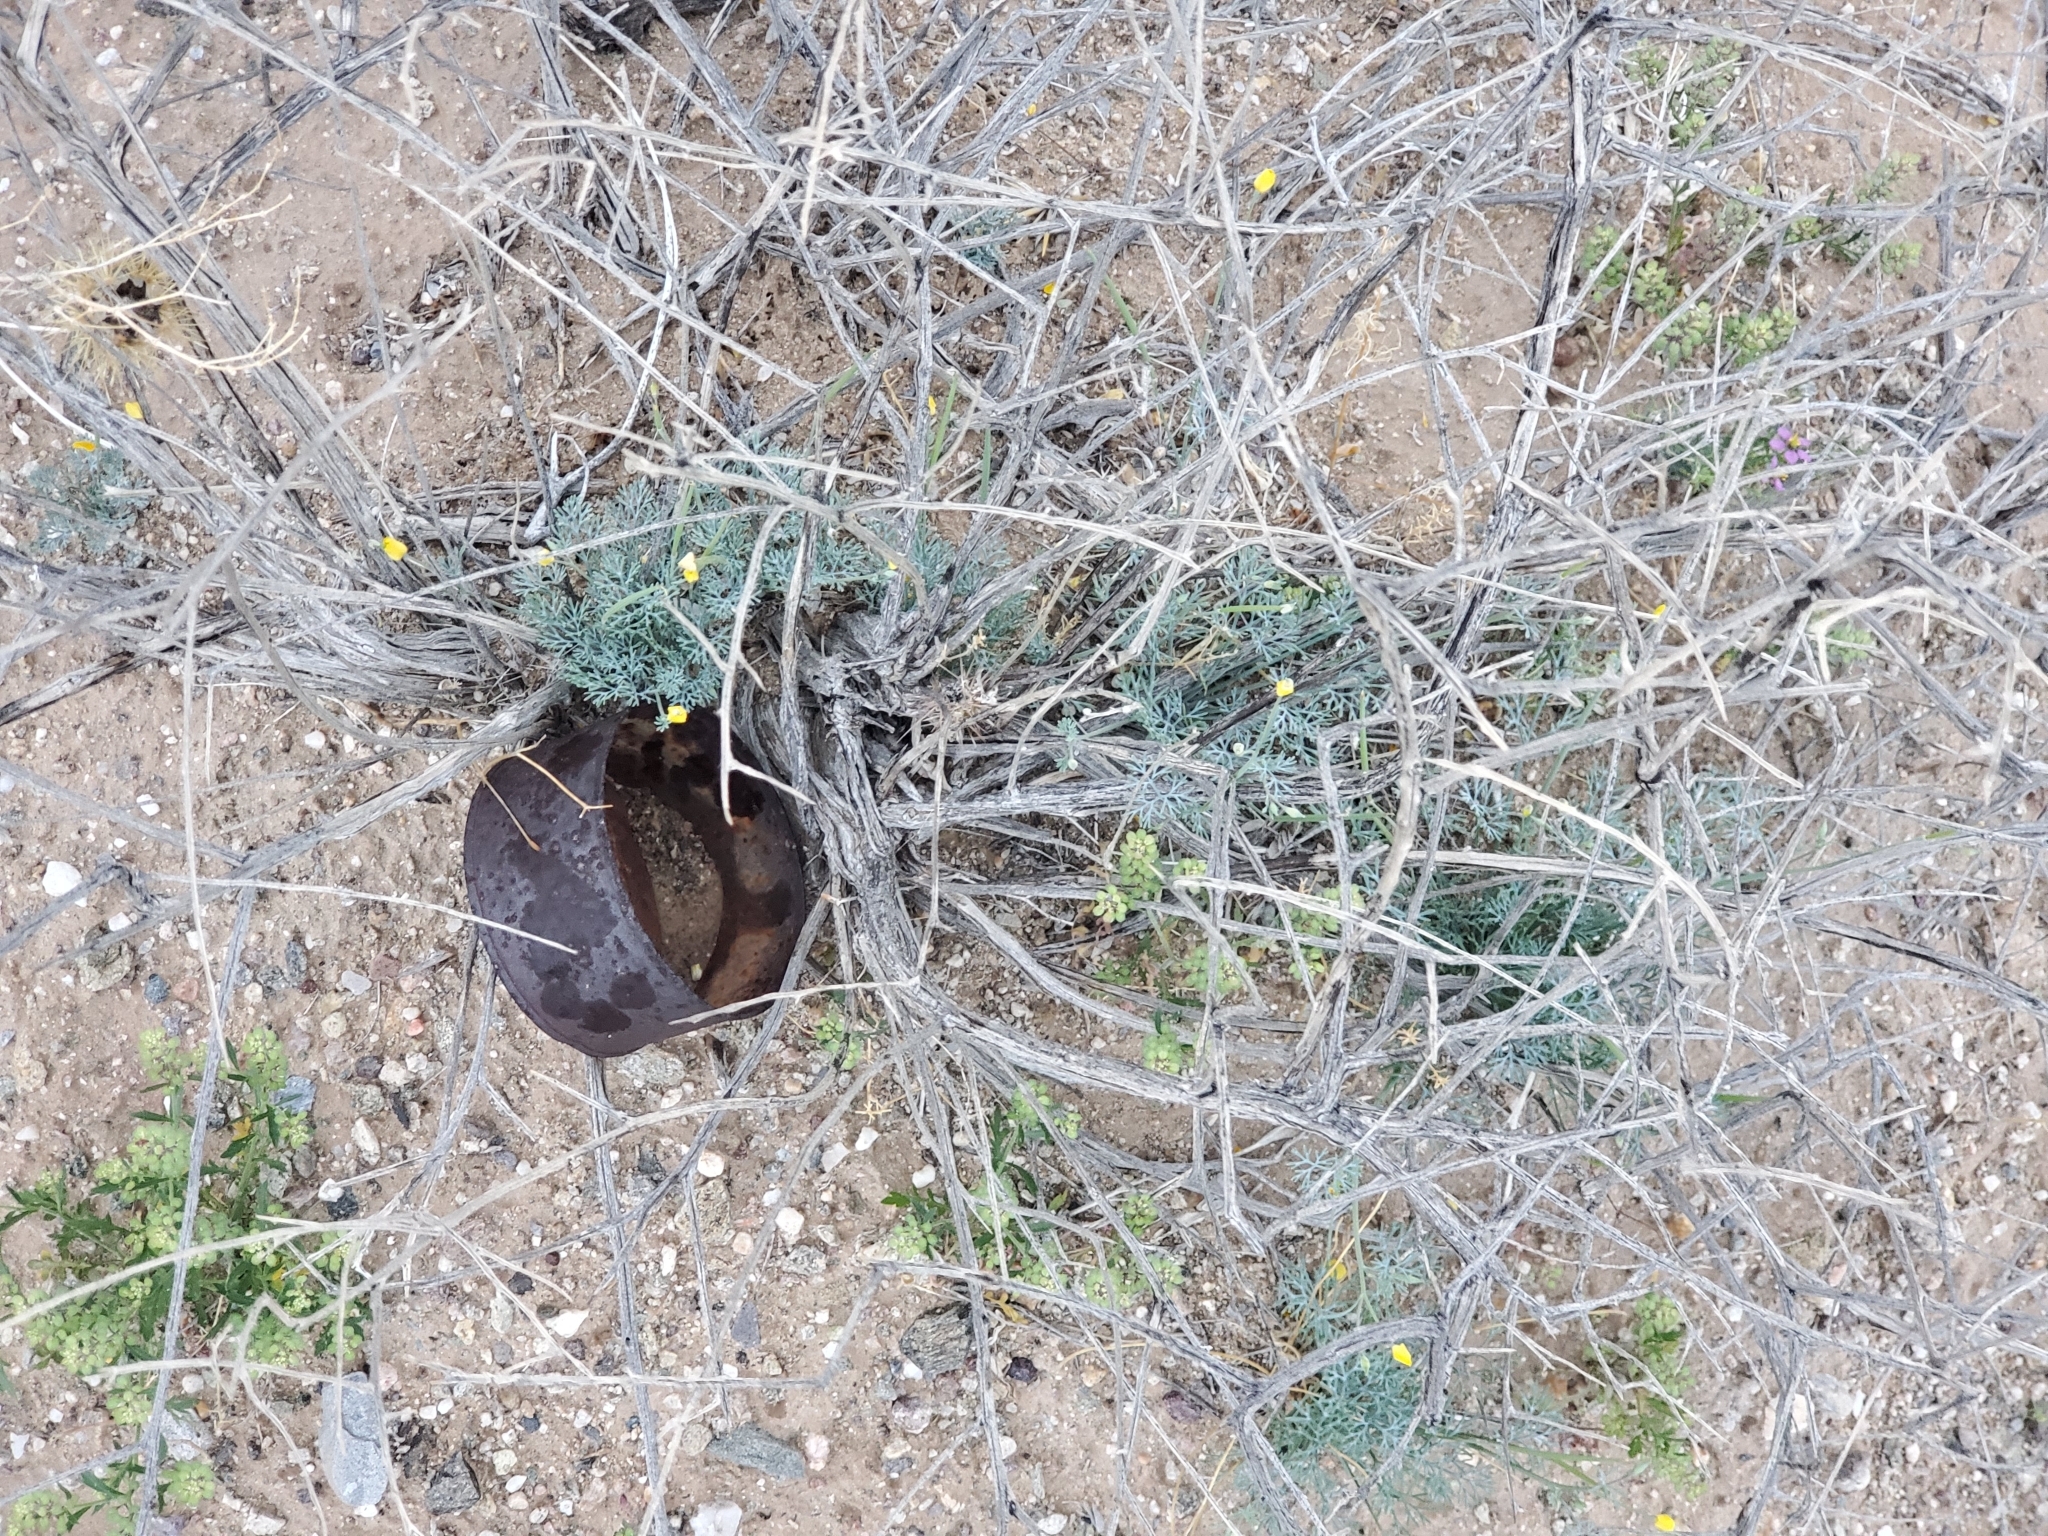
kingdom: Plantae
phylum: Tracheophyta
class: Magnoliopsida
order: Ranunculales
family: Papaveraceae
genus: Eschscholzia
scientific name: Eschscholzia minutiflora
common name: Small-flower california-poppy
